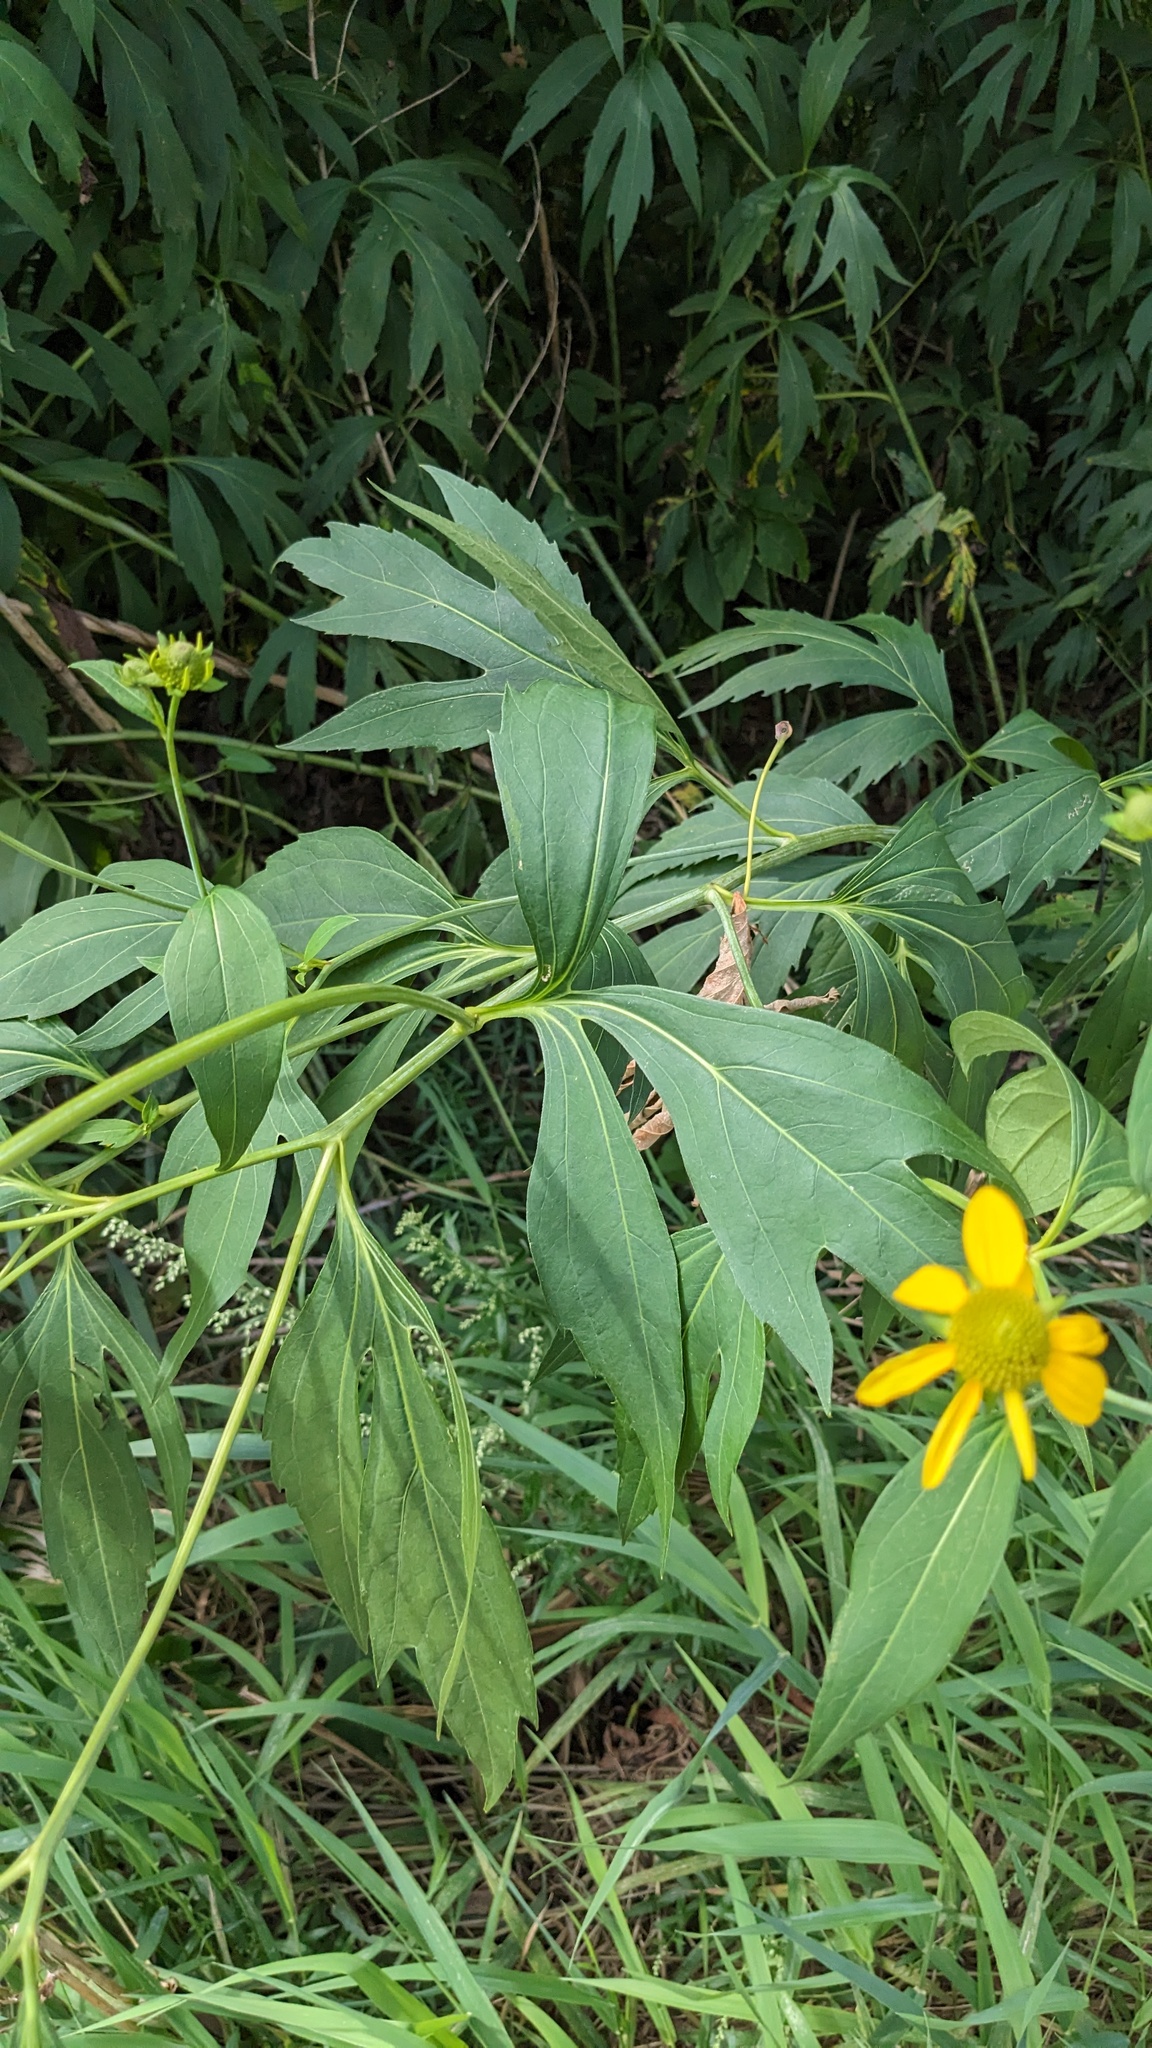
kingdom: Plantae
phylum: Tracheophyta
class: Magnoliopsida
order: Asterales
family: Asteraceae
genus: Rudbeckia
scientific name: Rudbeckia laciniata
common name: Coneflower
